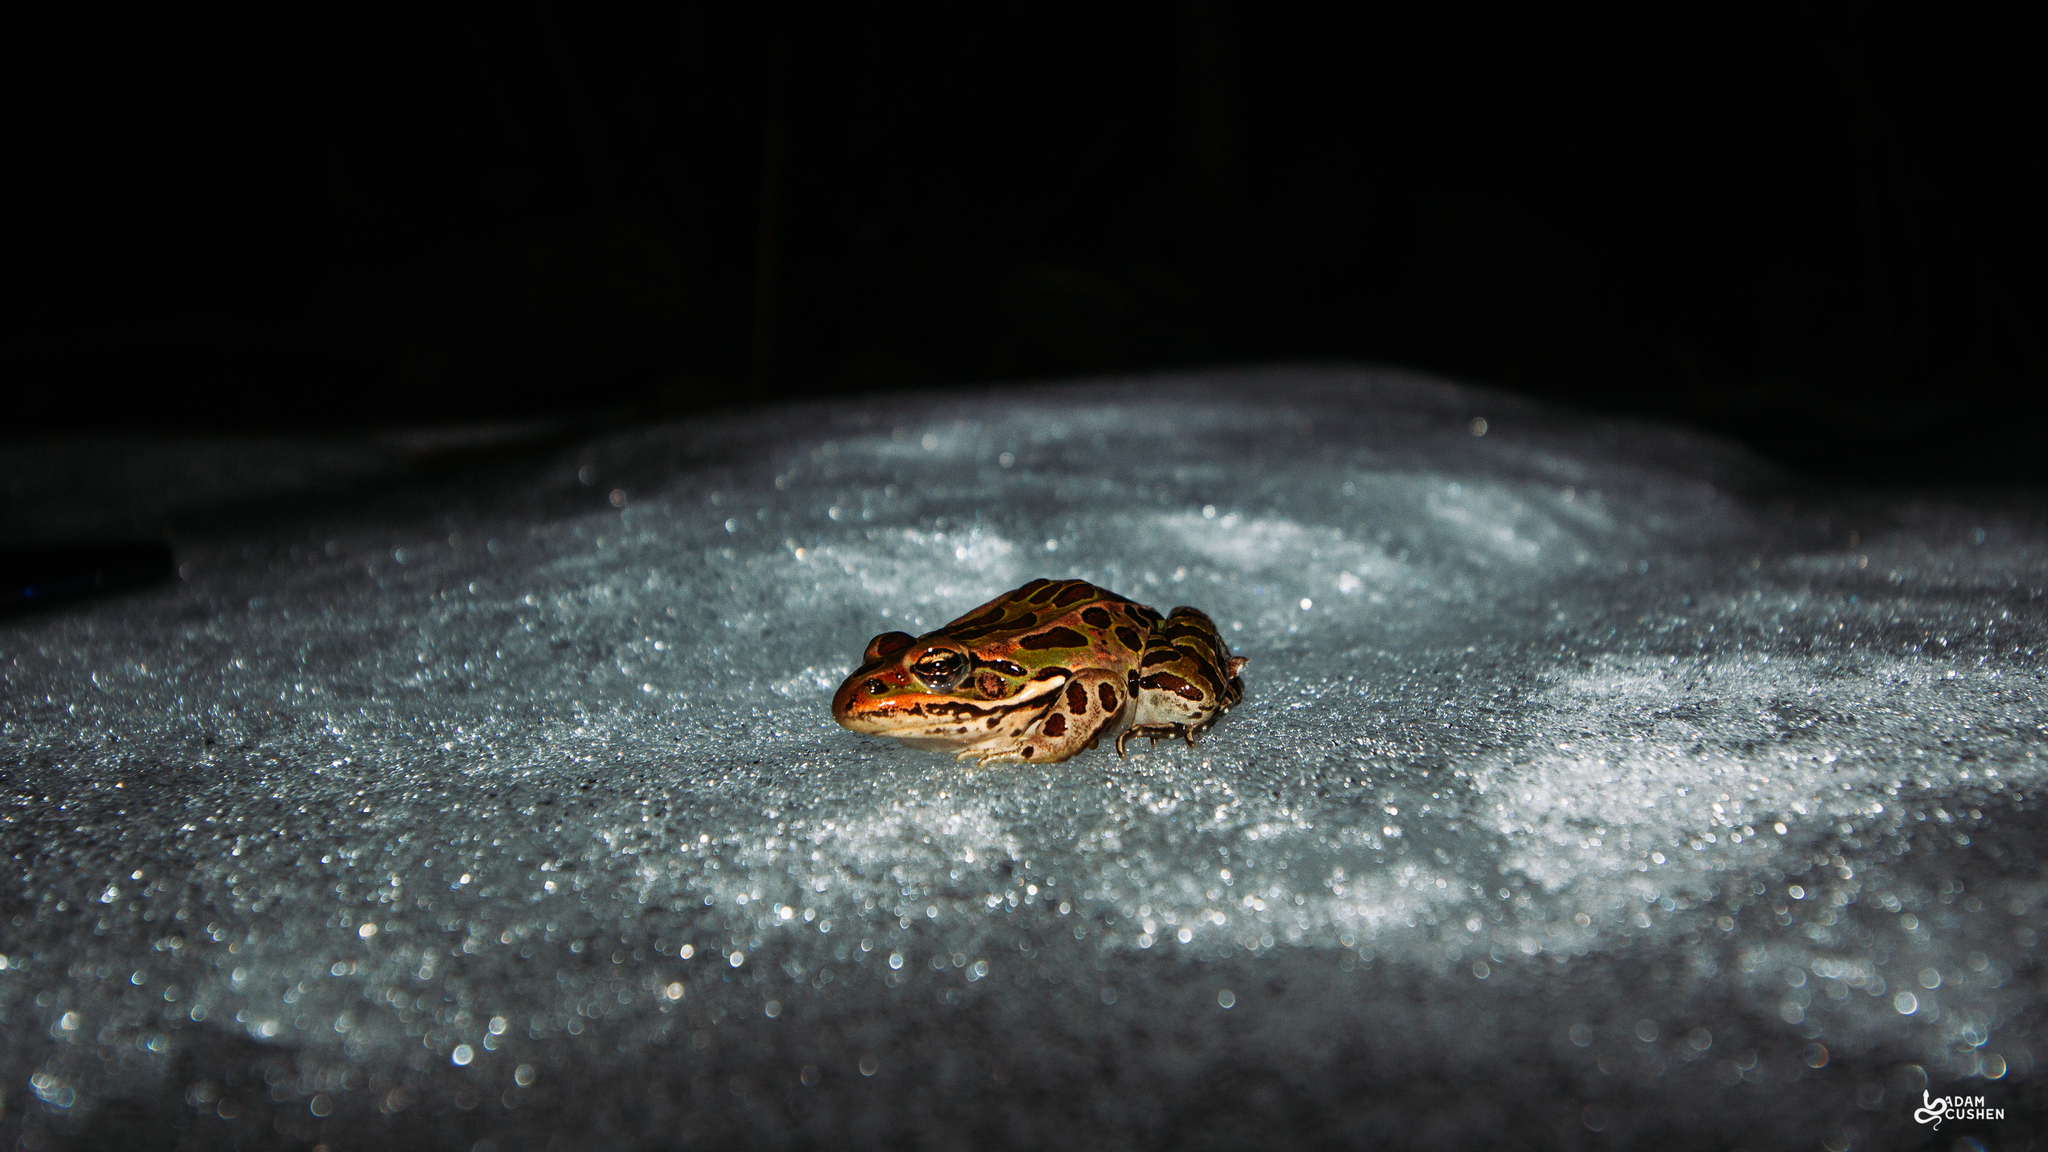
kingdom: Animalia
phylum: Chordata
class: Amphibia
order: Anura
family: Ranidae
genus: Lithobates
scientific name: Lithobates pipiens
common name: Northern leopard frog
